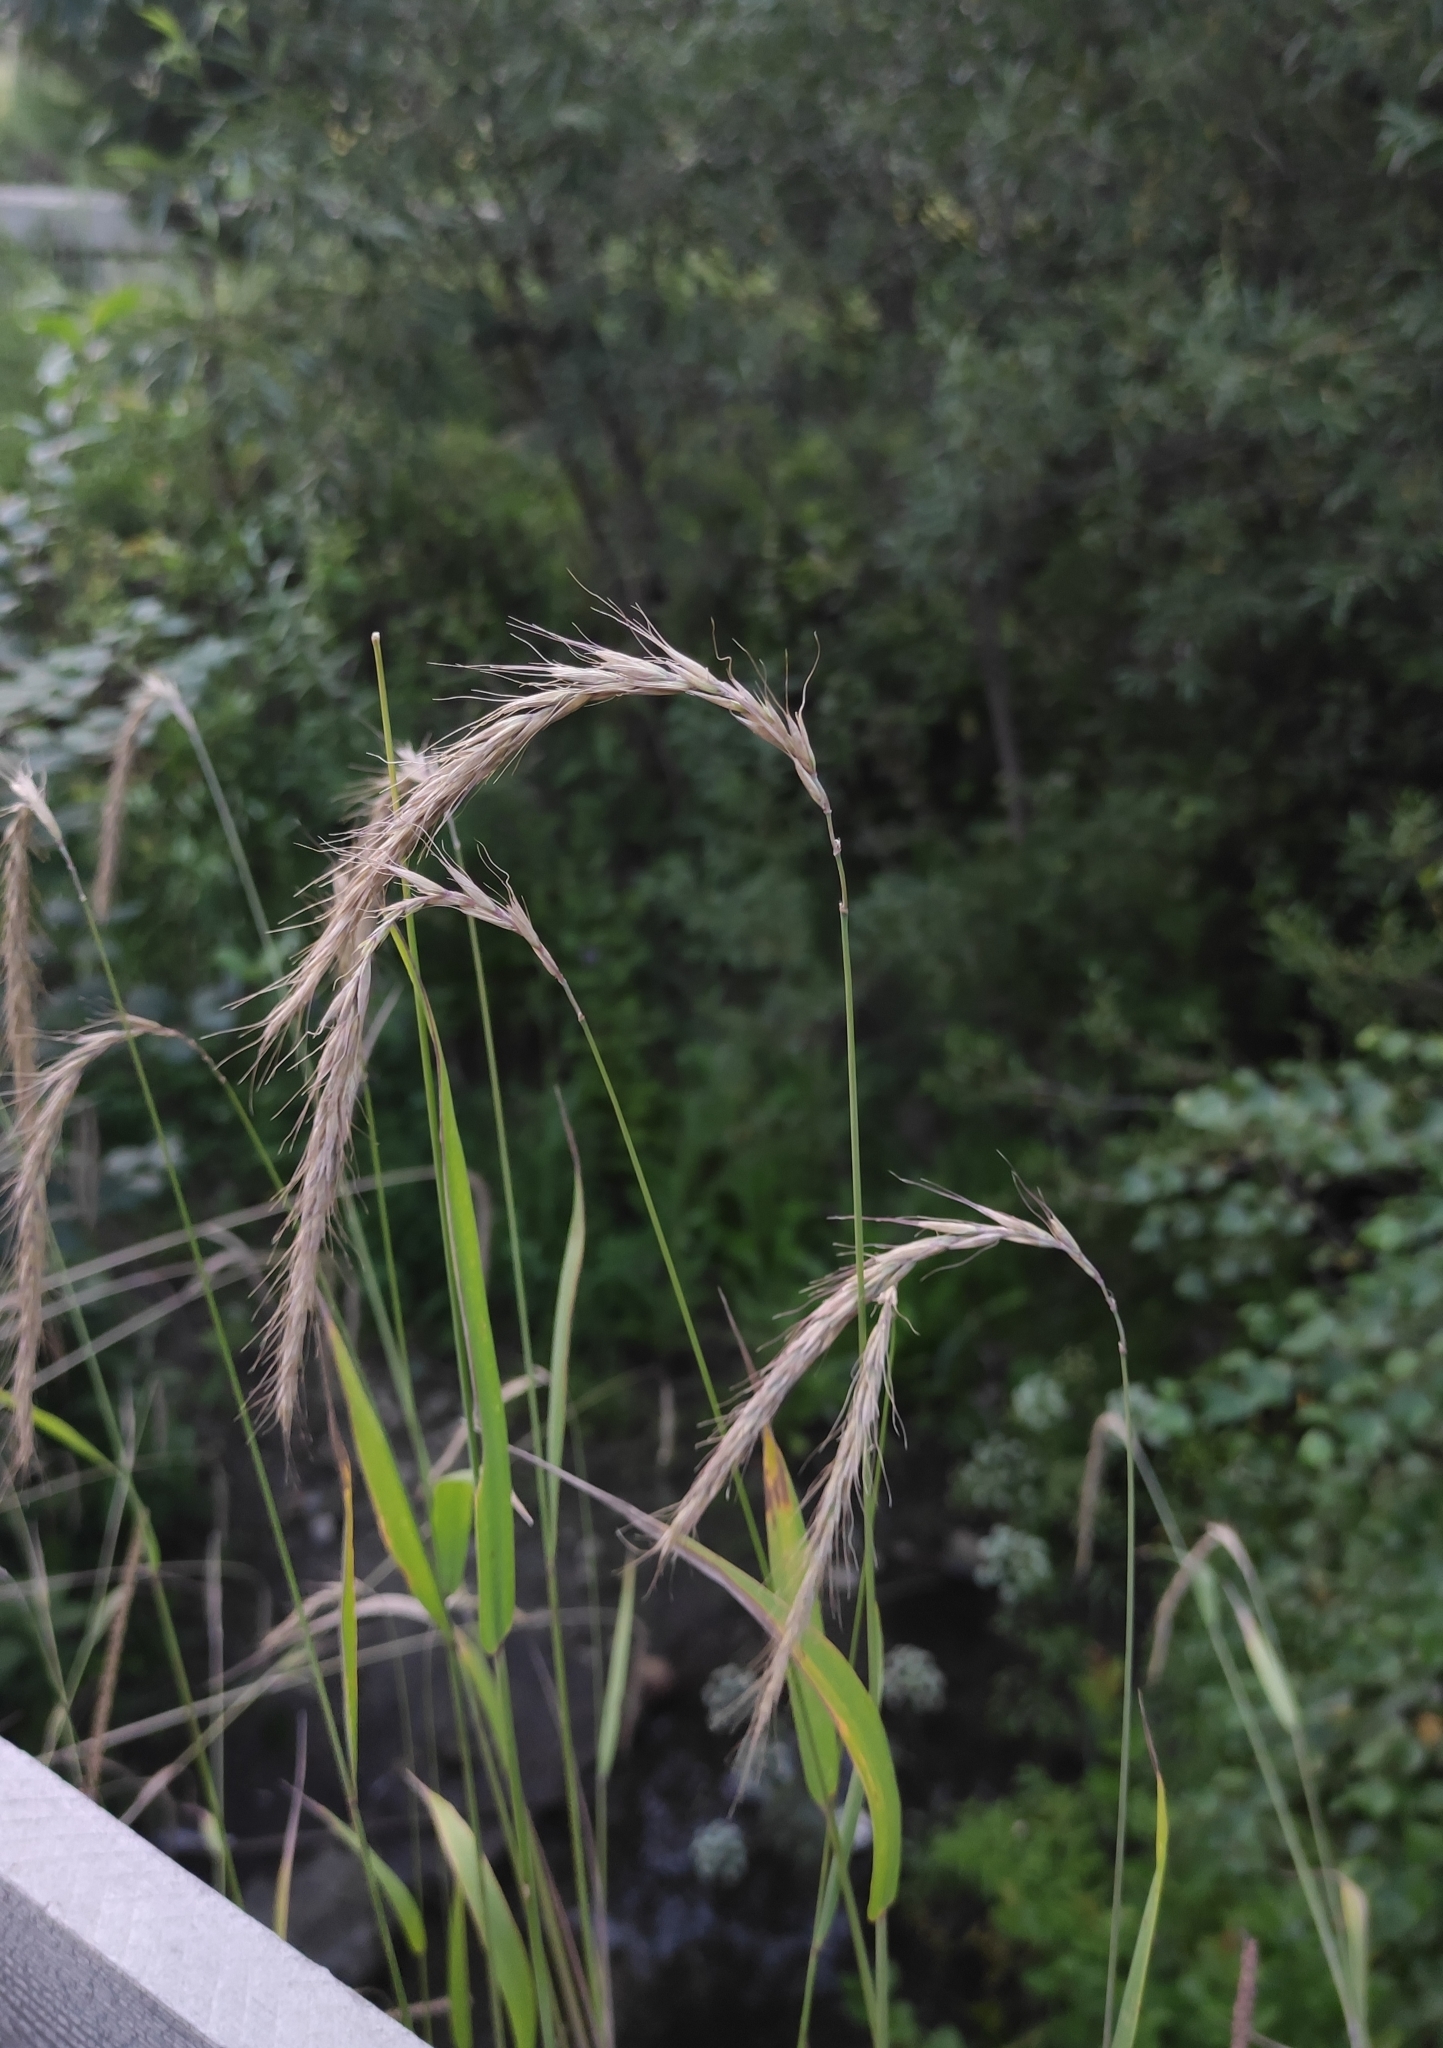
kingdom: Plantae
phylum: Tracheophyta
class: Liliopsida
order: Poales
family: Poaceae
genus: Elymus
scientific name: Elymus sibiricus
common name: Siberian wildrye
